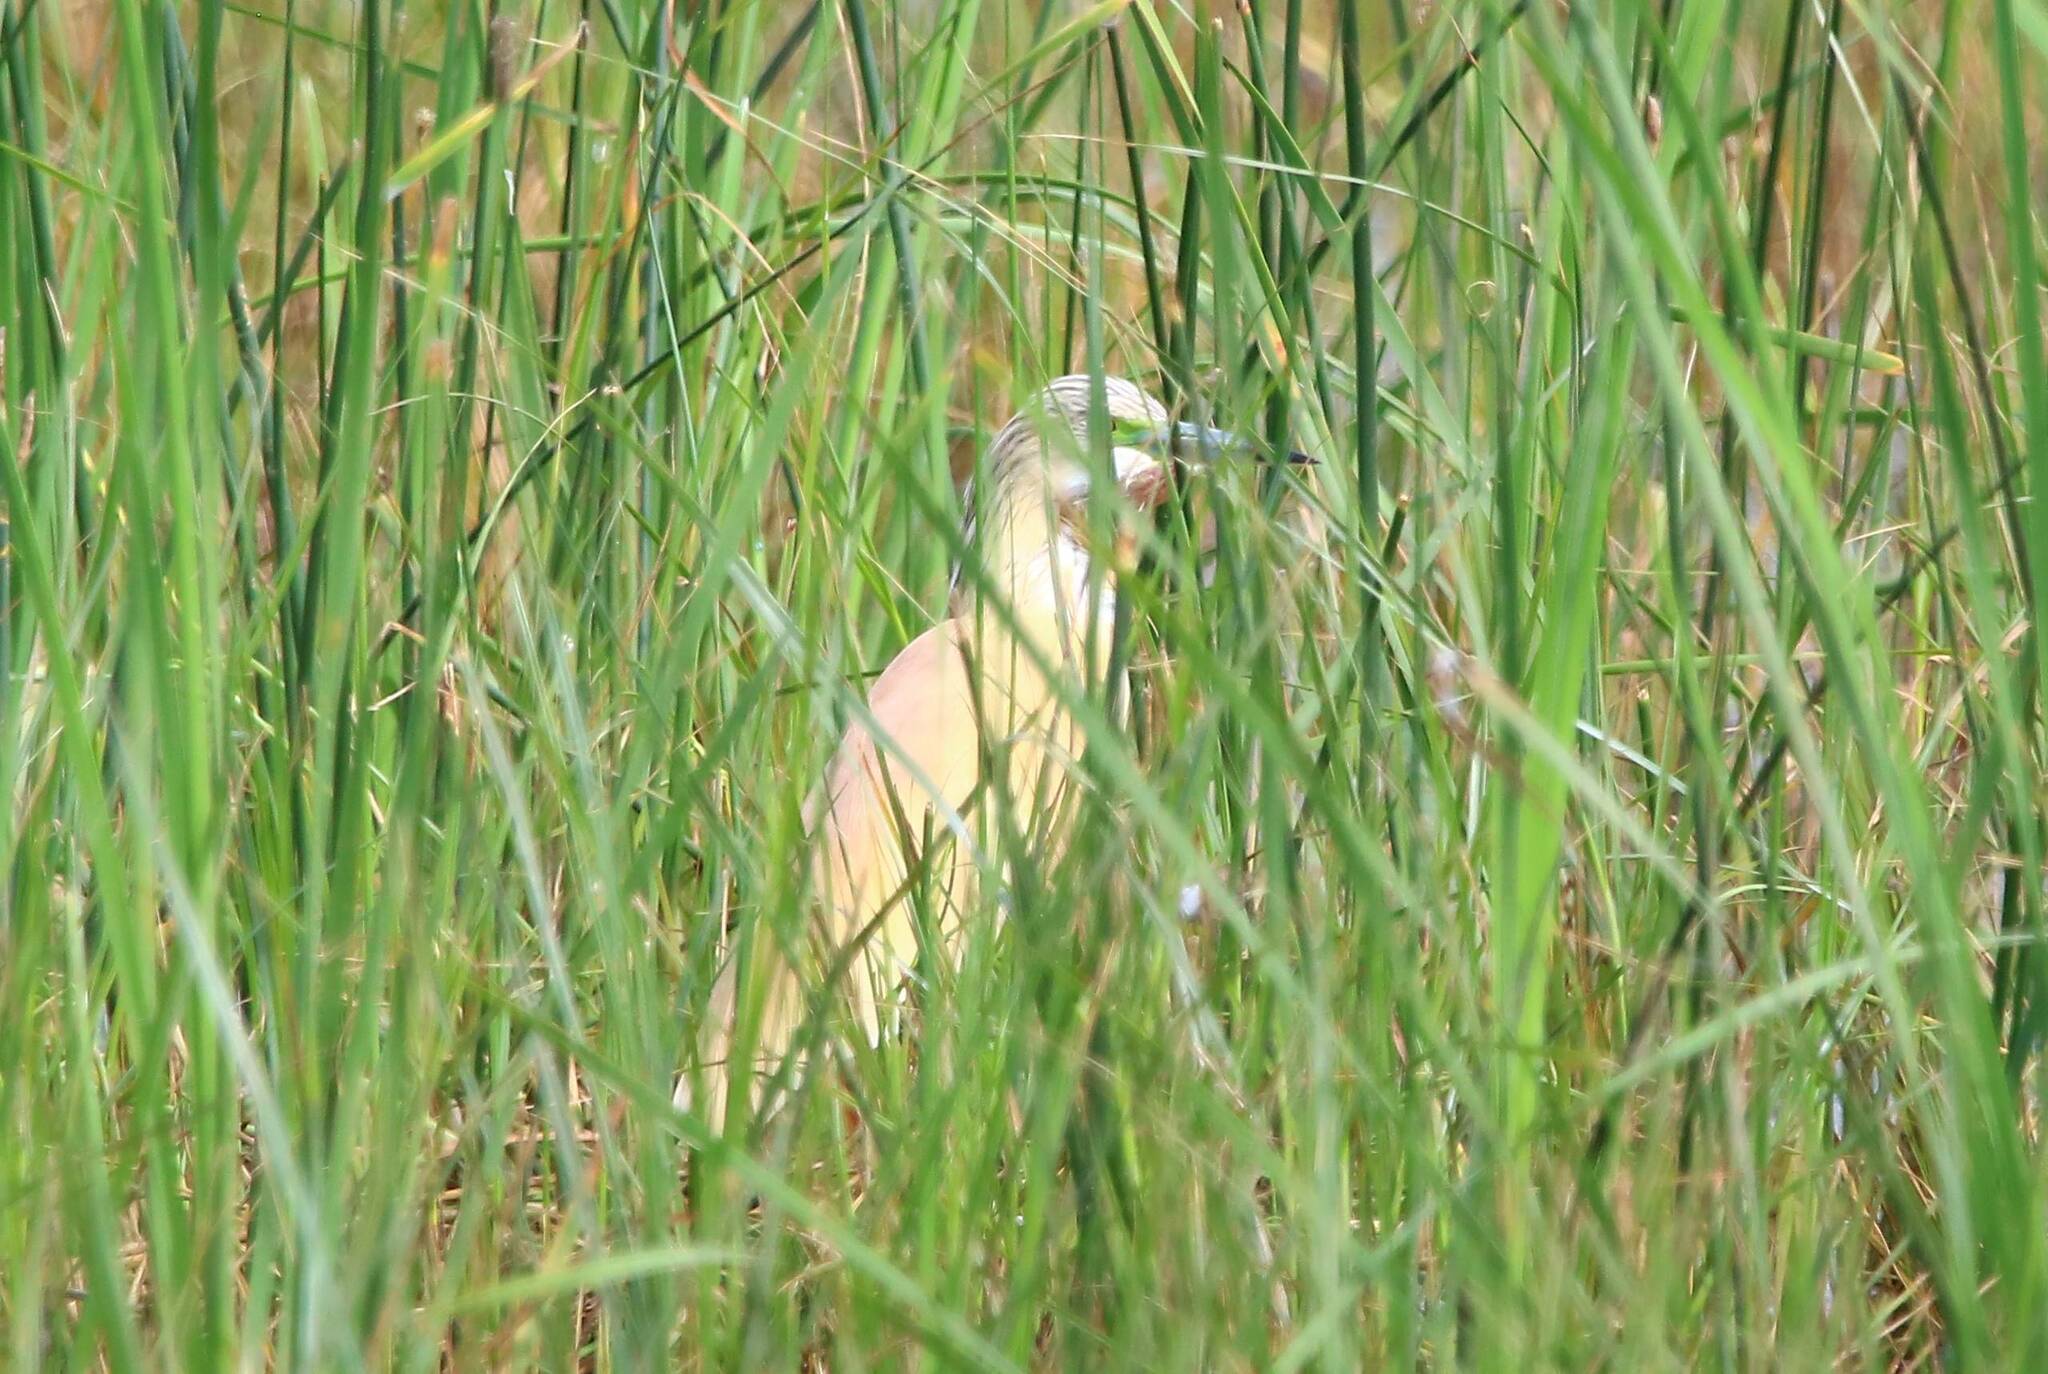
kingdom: Animalia
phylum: Chordata
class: Aves
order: Pelecaniformes
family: Ardeidae
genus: Ardeola
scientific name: Ardeola ralloides
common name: Squacco heron
